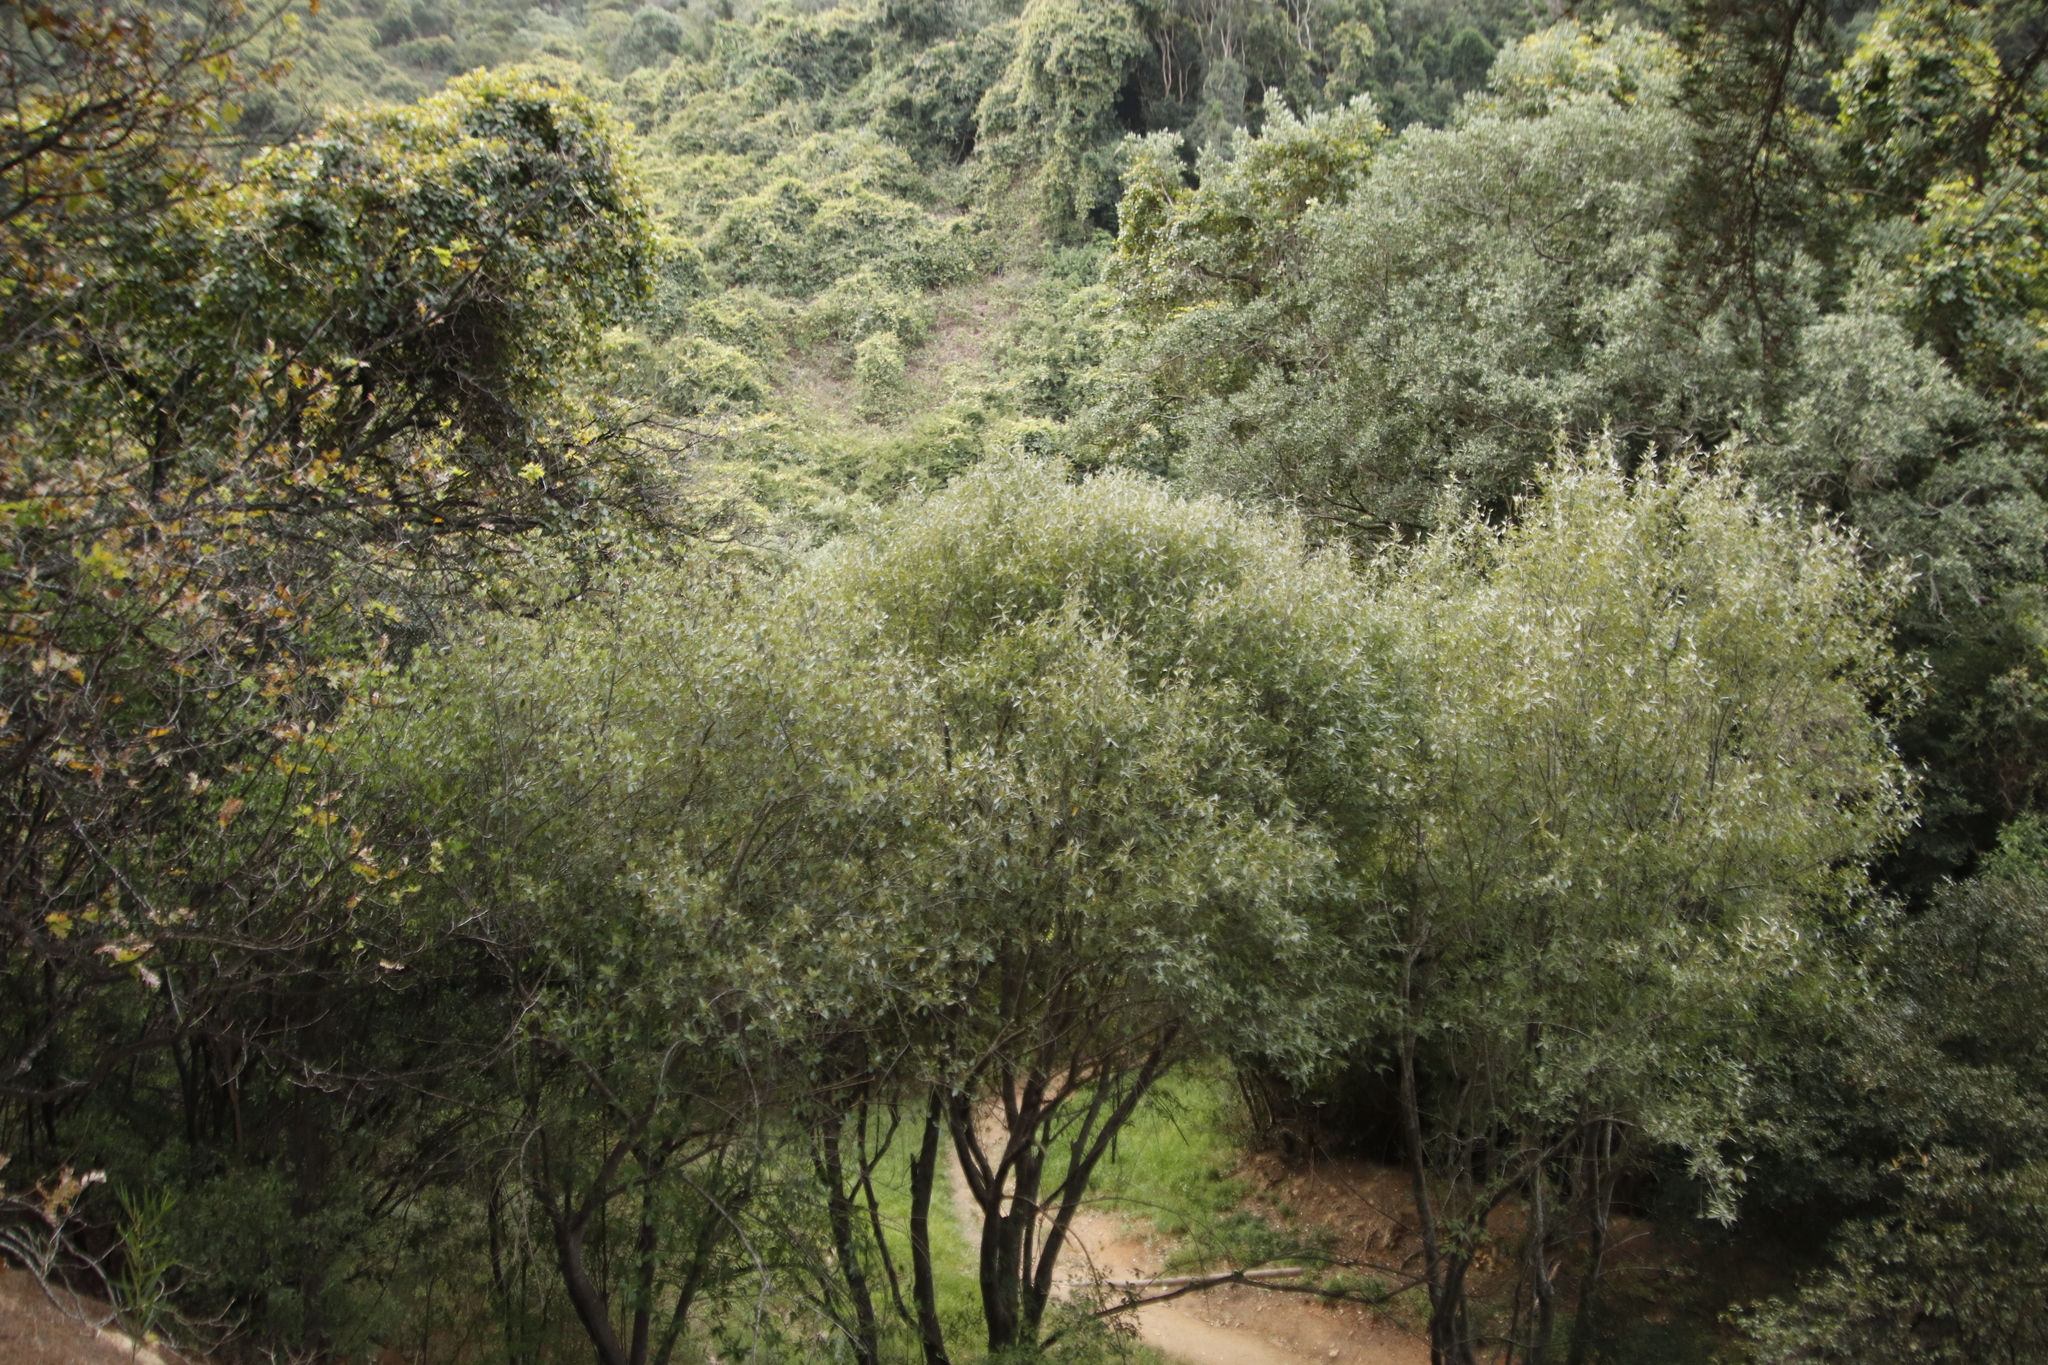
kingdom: Plantae
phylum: Tracheophyta
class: Magnoliopsida
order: Malpighiales
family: Achariaceae
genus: Kiggelaria
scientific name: Kiggelaria africana
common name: Wild peach
